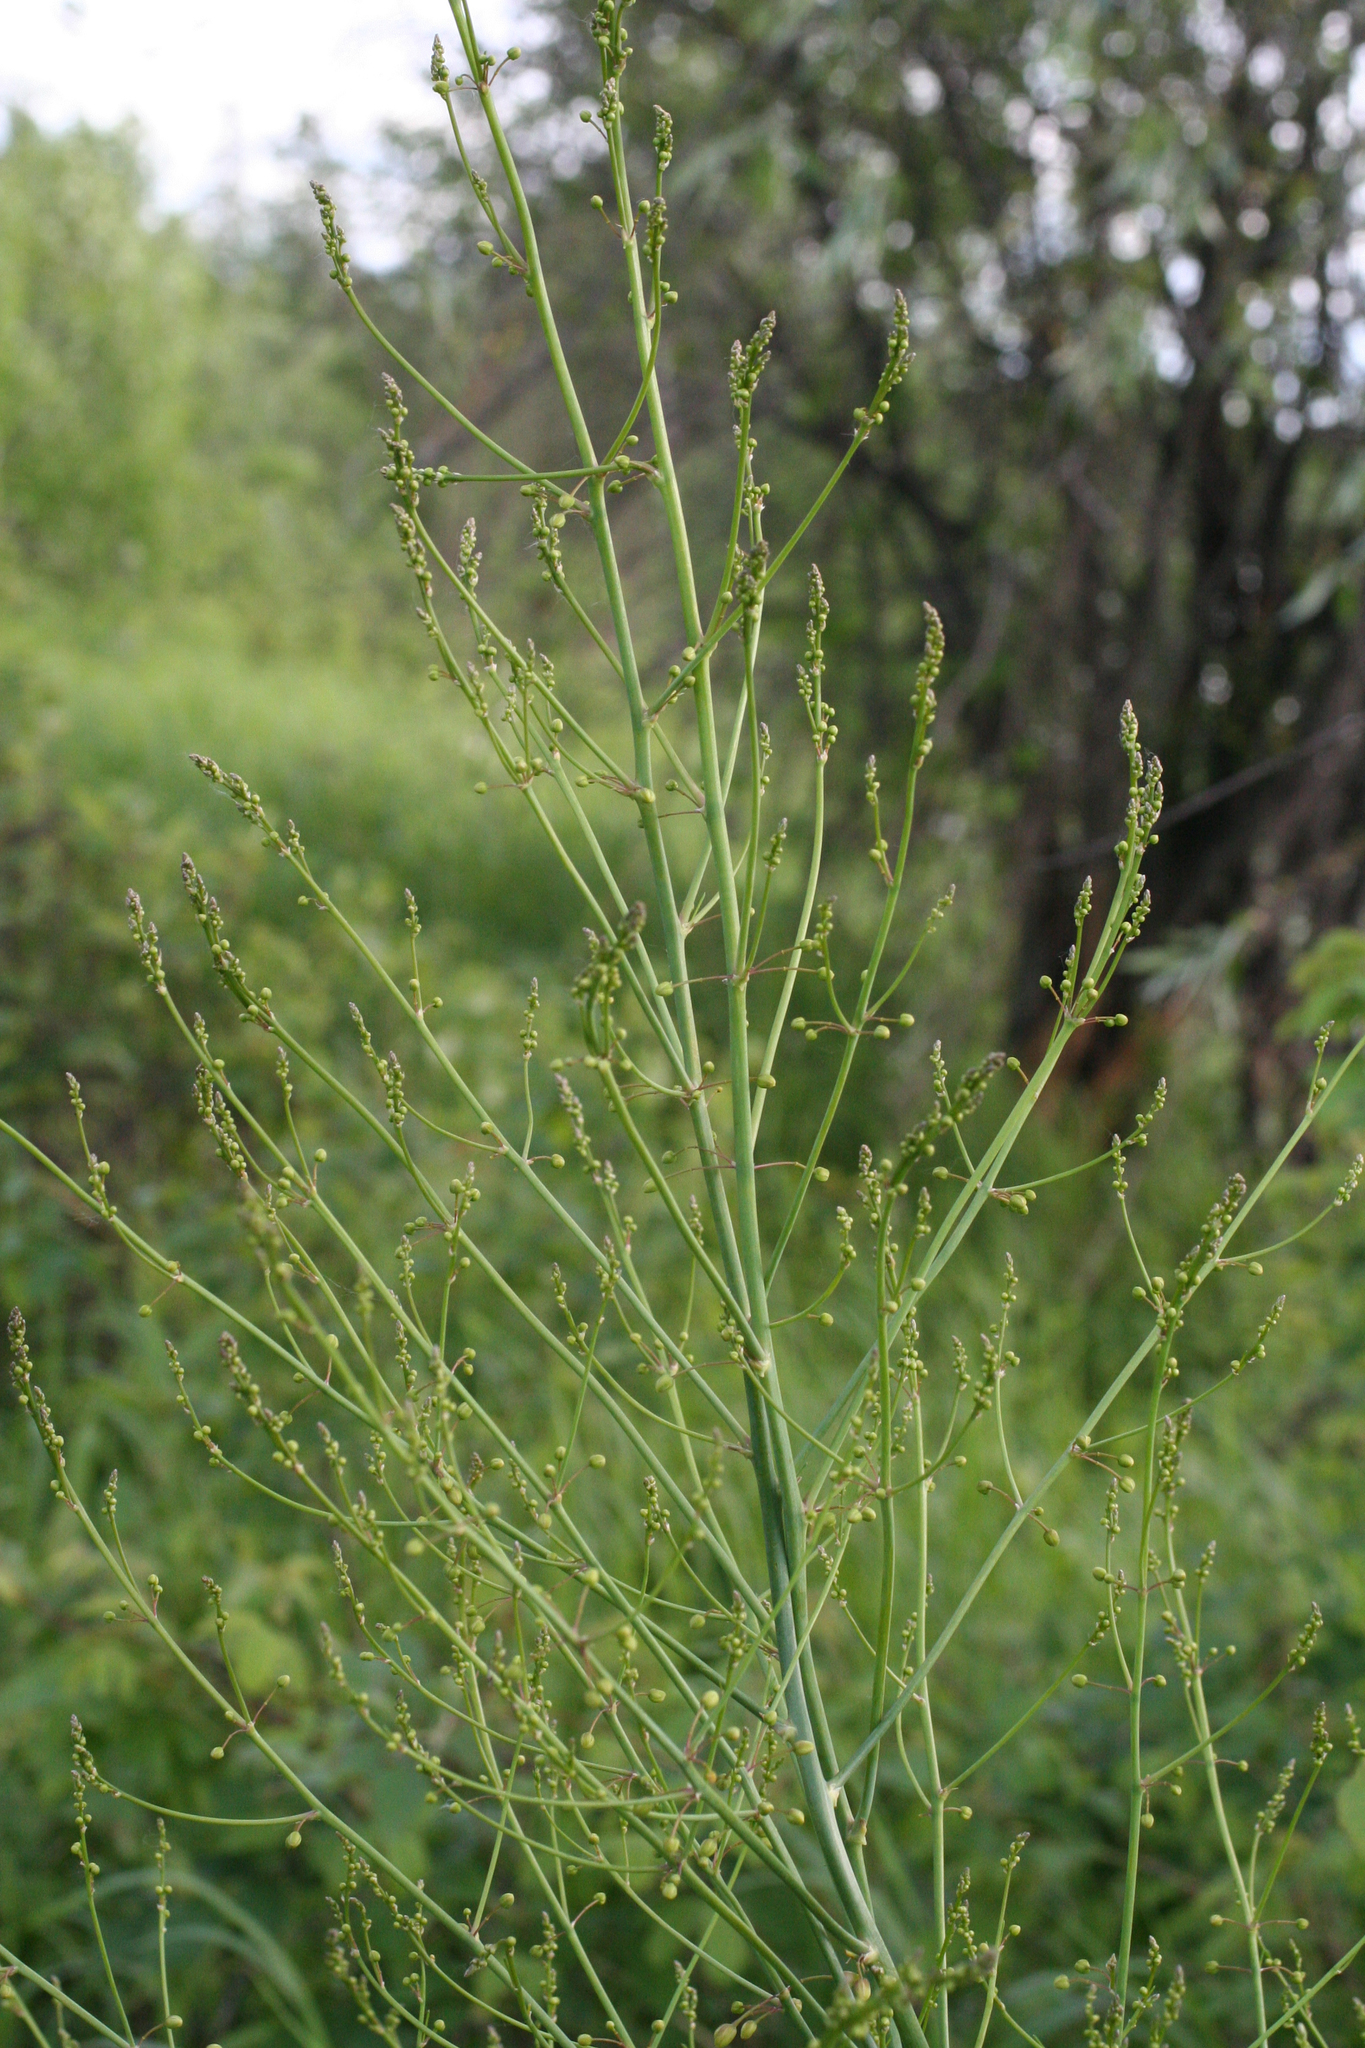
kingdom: Plantae
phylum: Tracheophyta
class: Liliopsida
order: Asparagales
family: Asparagaceae
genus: Asparagus
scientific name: Asparagus officinalis
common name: Garden asparagus
